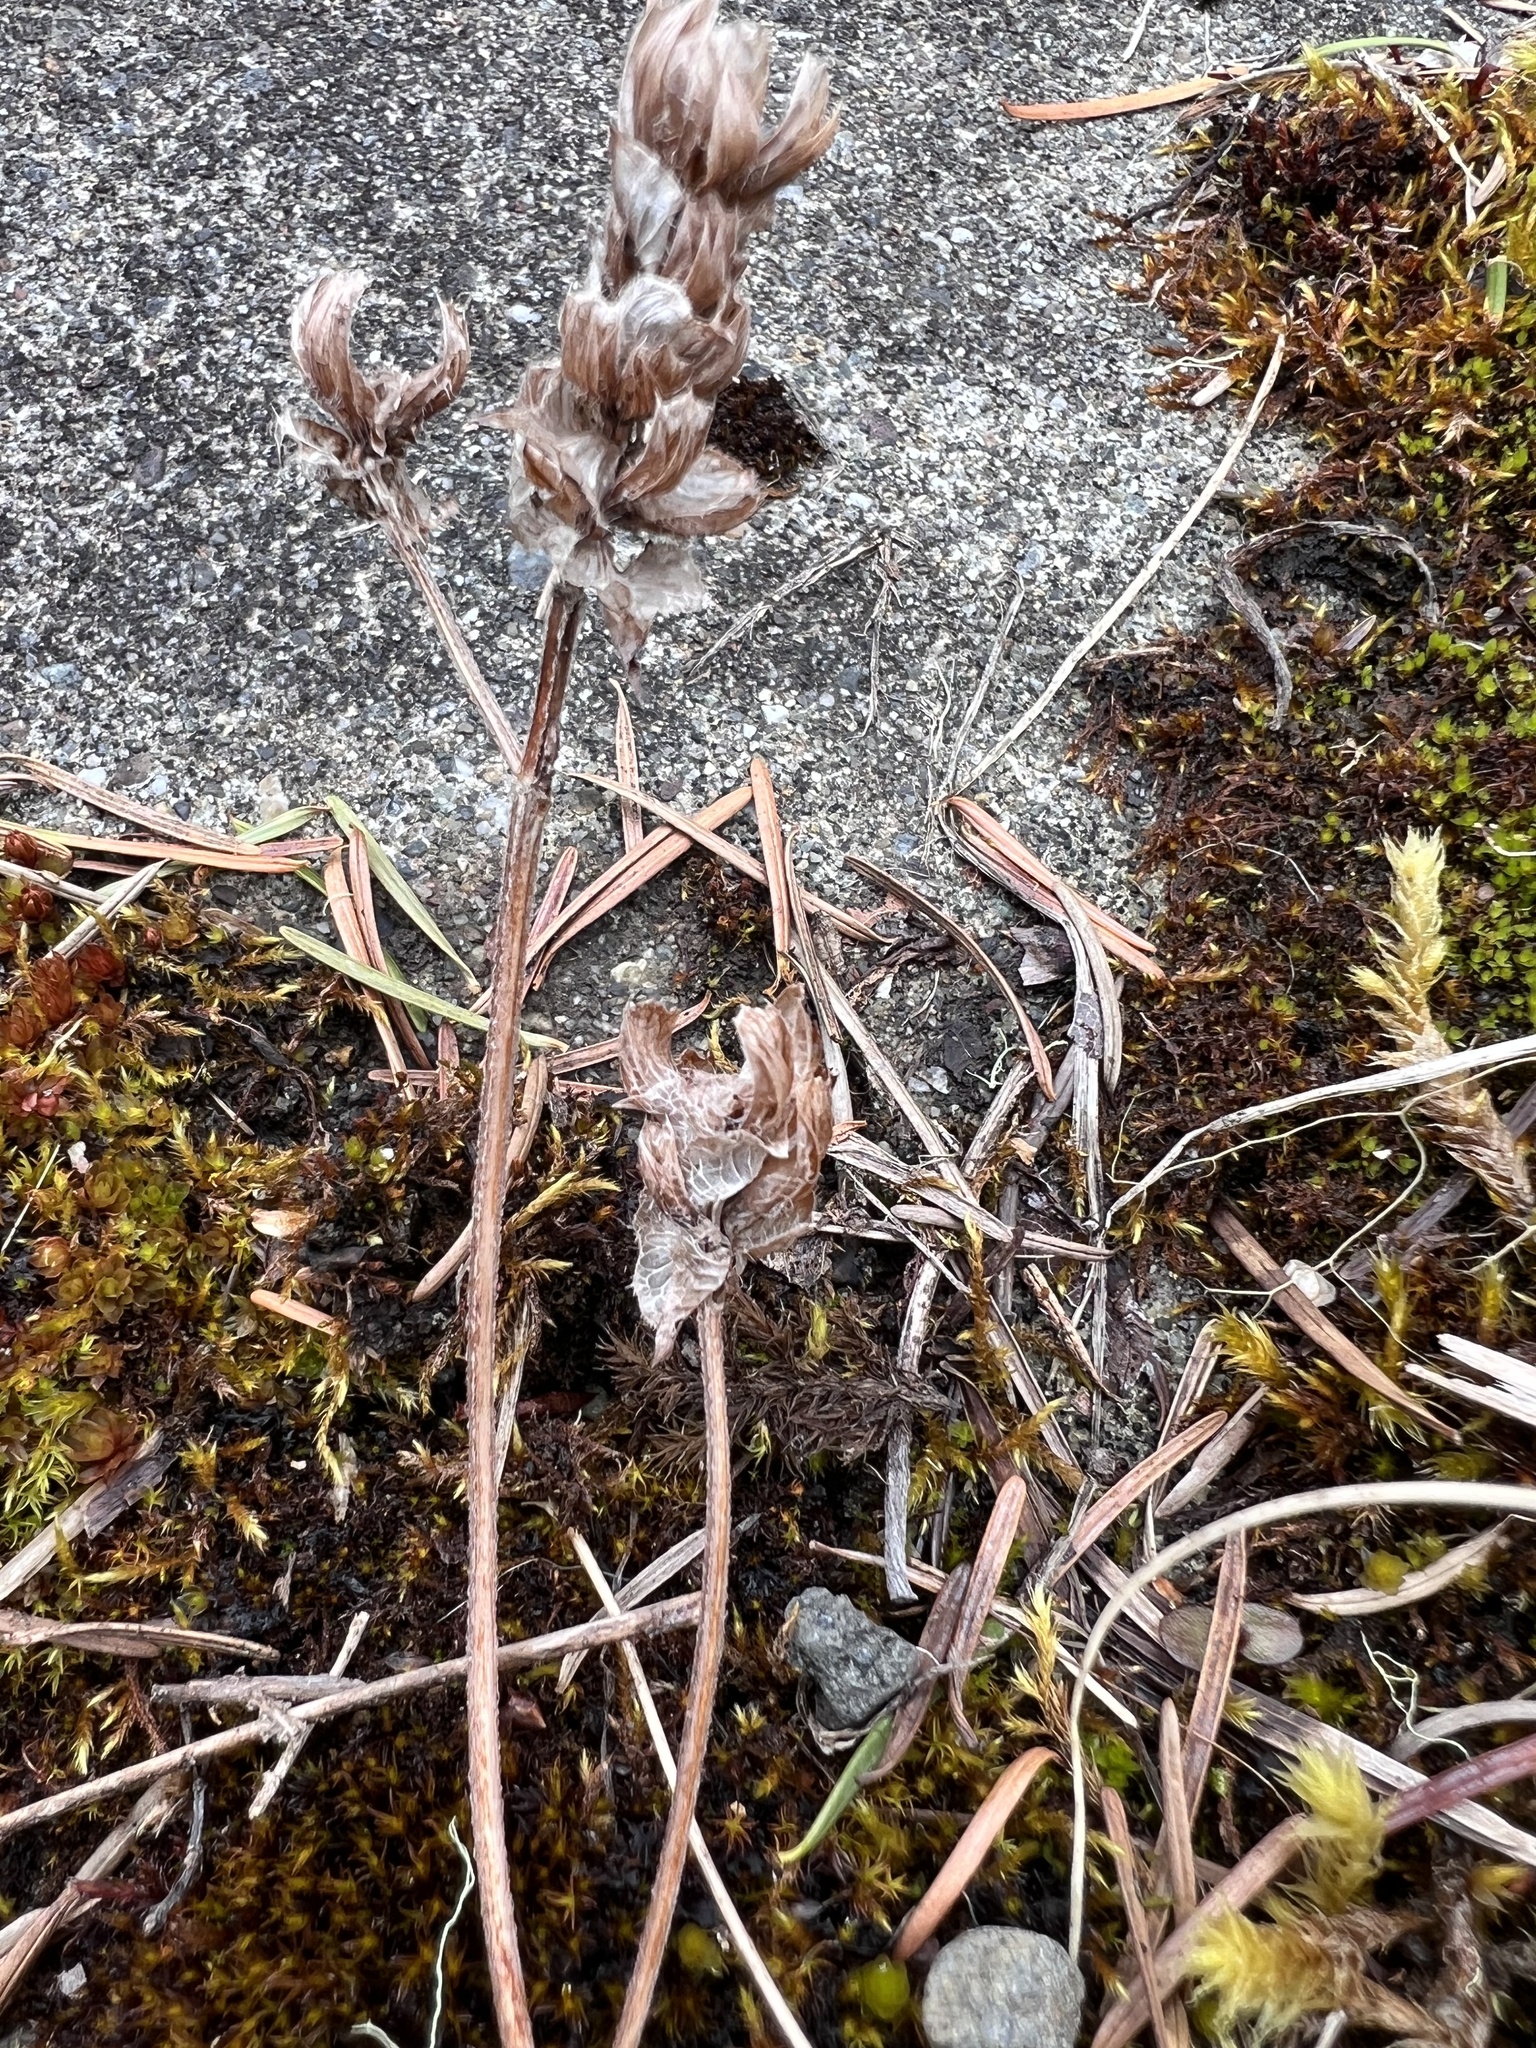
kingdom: Plantae
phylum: Tracheophyta
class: Magnoliopsida
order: Lamiales
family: Lamiaceae
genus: Prunella
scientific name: Prunella vulgaris
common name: Heal-all
